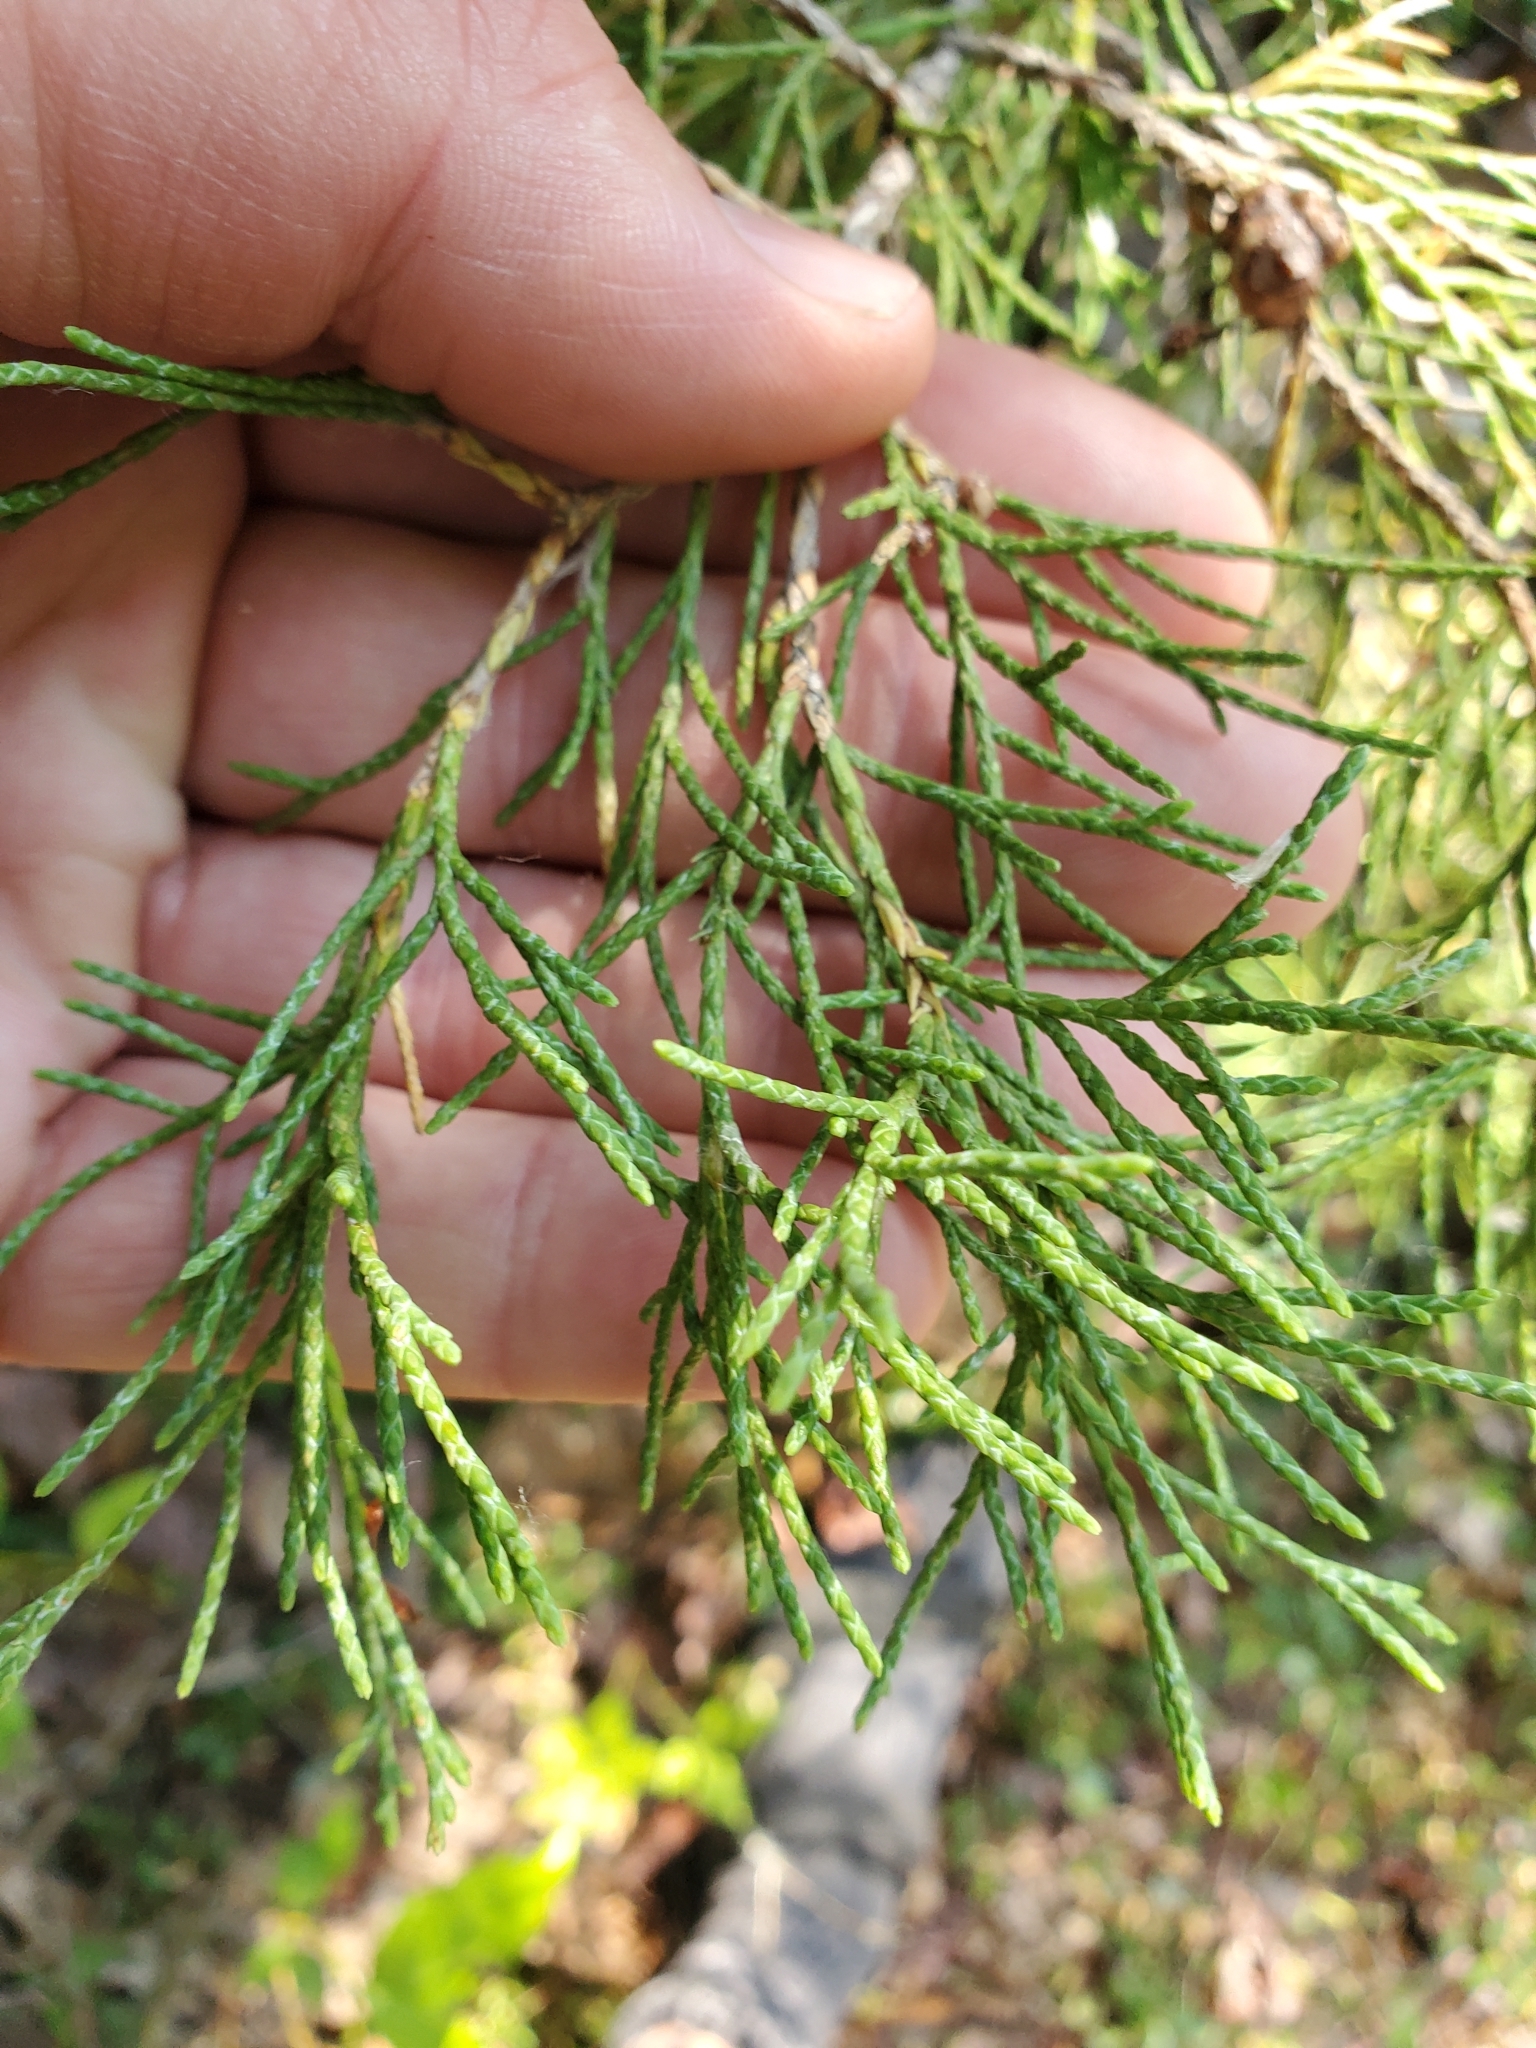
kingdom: Plantae
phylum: Tracheophyta
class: Pinopsida
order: Pinales
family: Cupressaceae
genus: Juniperus
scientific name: Juniperus scopulorum
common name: Rocky mountain juniper
